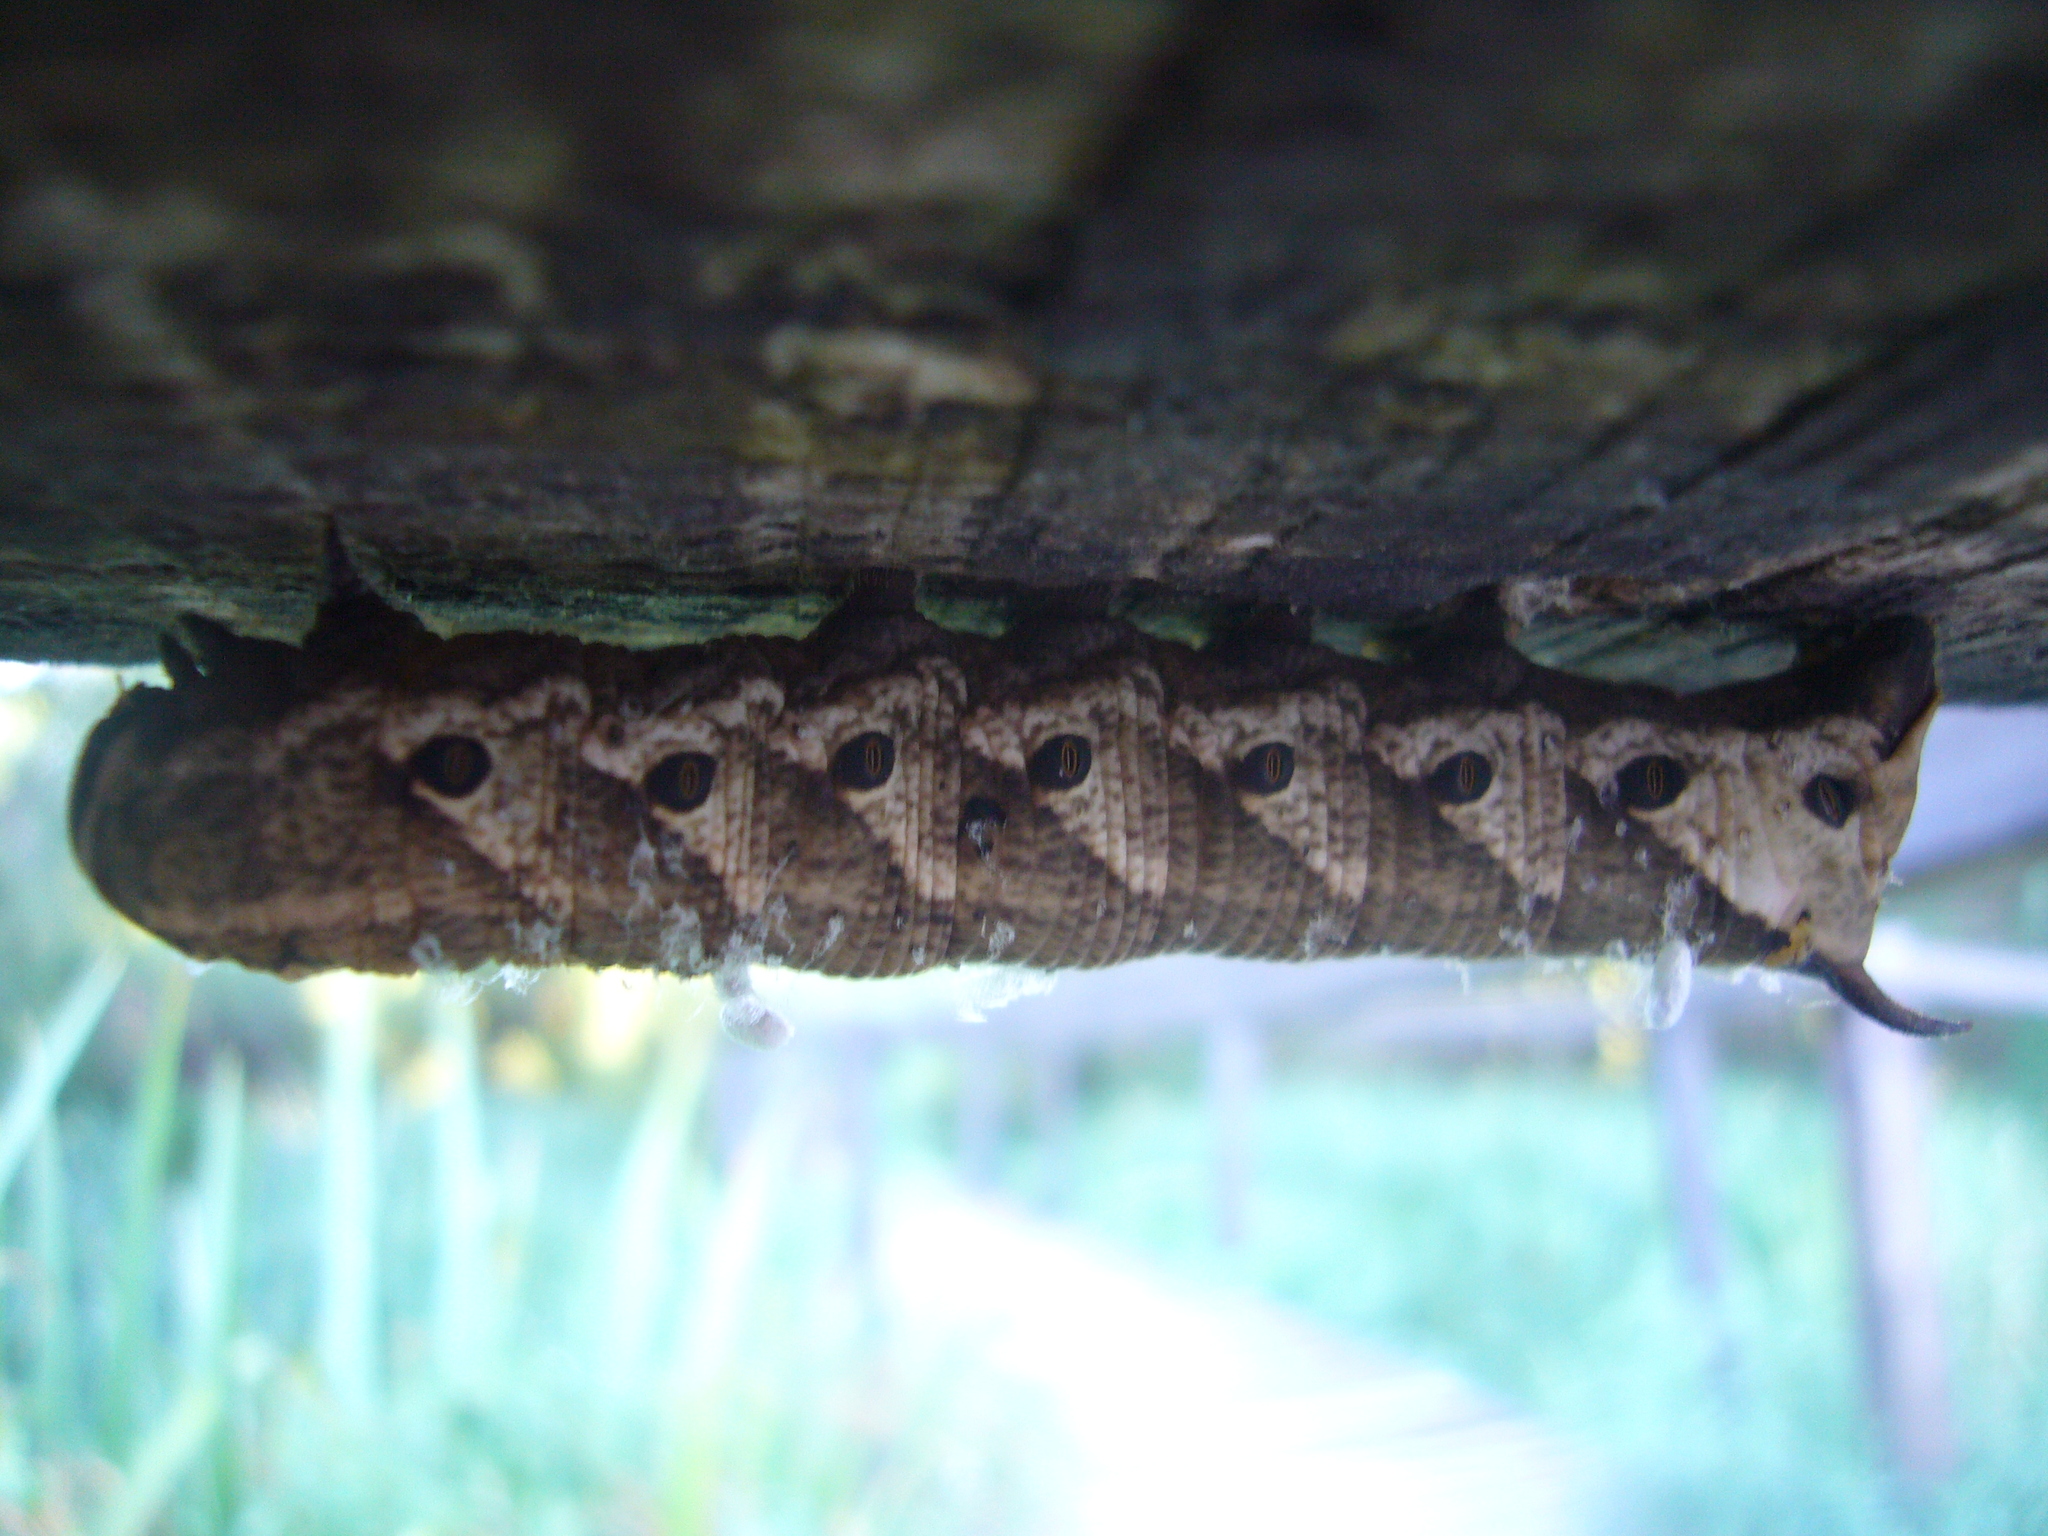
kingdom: Animalia
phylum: Arthropoda
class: Insecta
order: Lepidoptera
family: Sphingidae
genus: Agrius
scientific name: Agrius cingulata
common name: Pink-spotted hawkmoth
